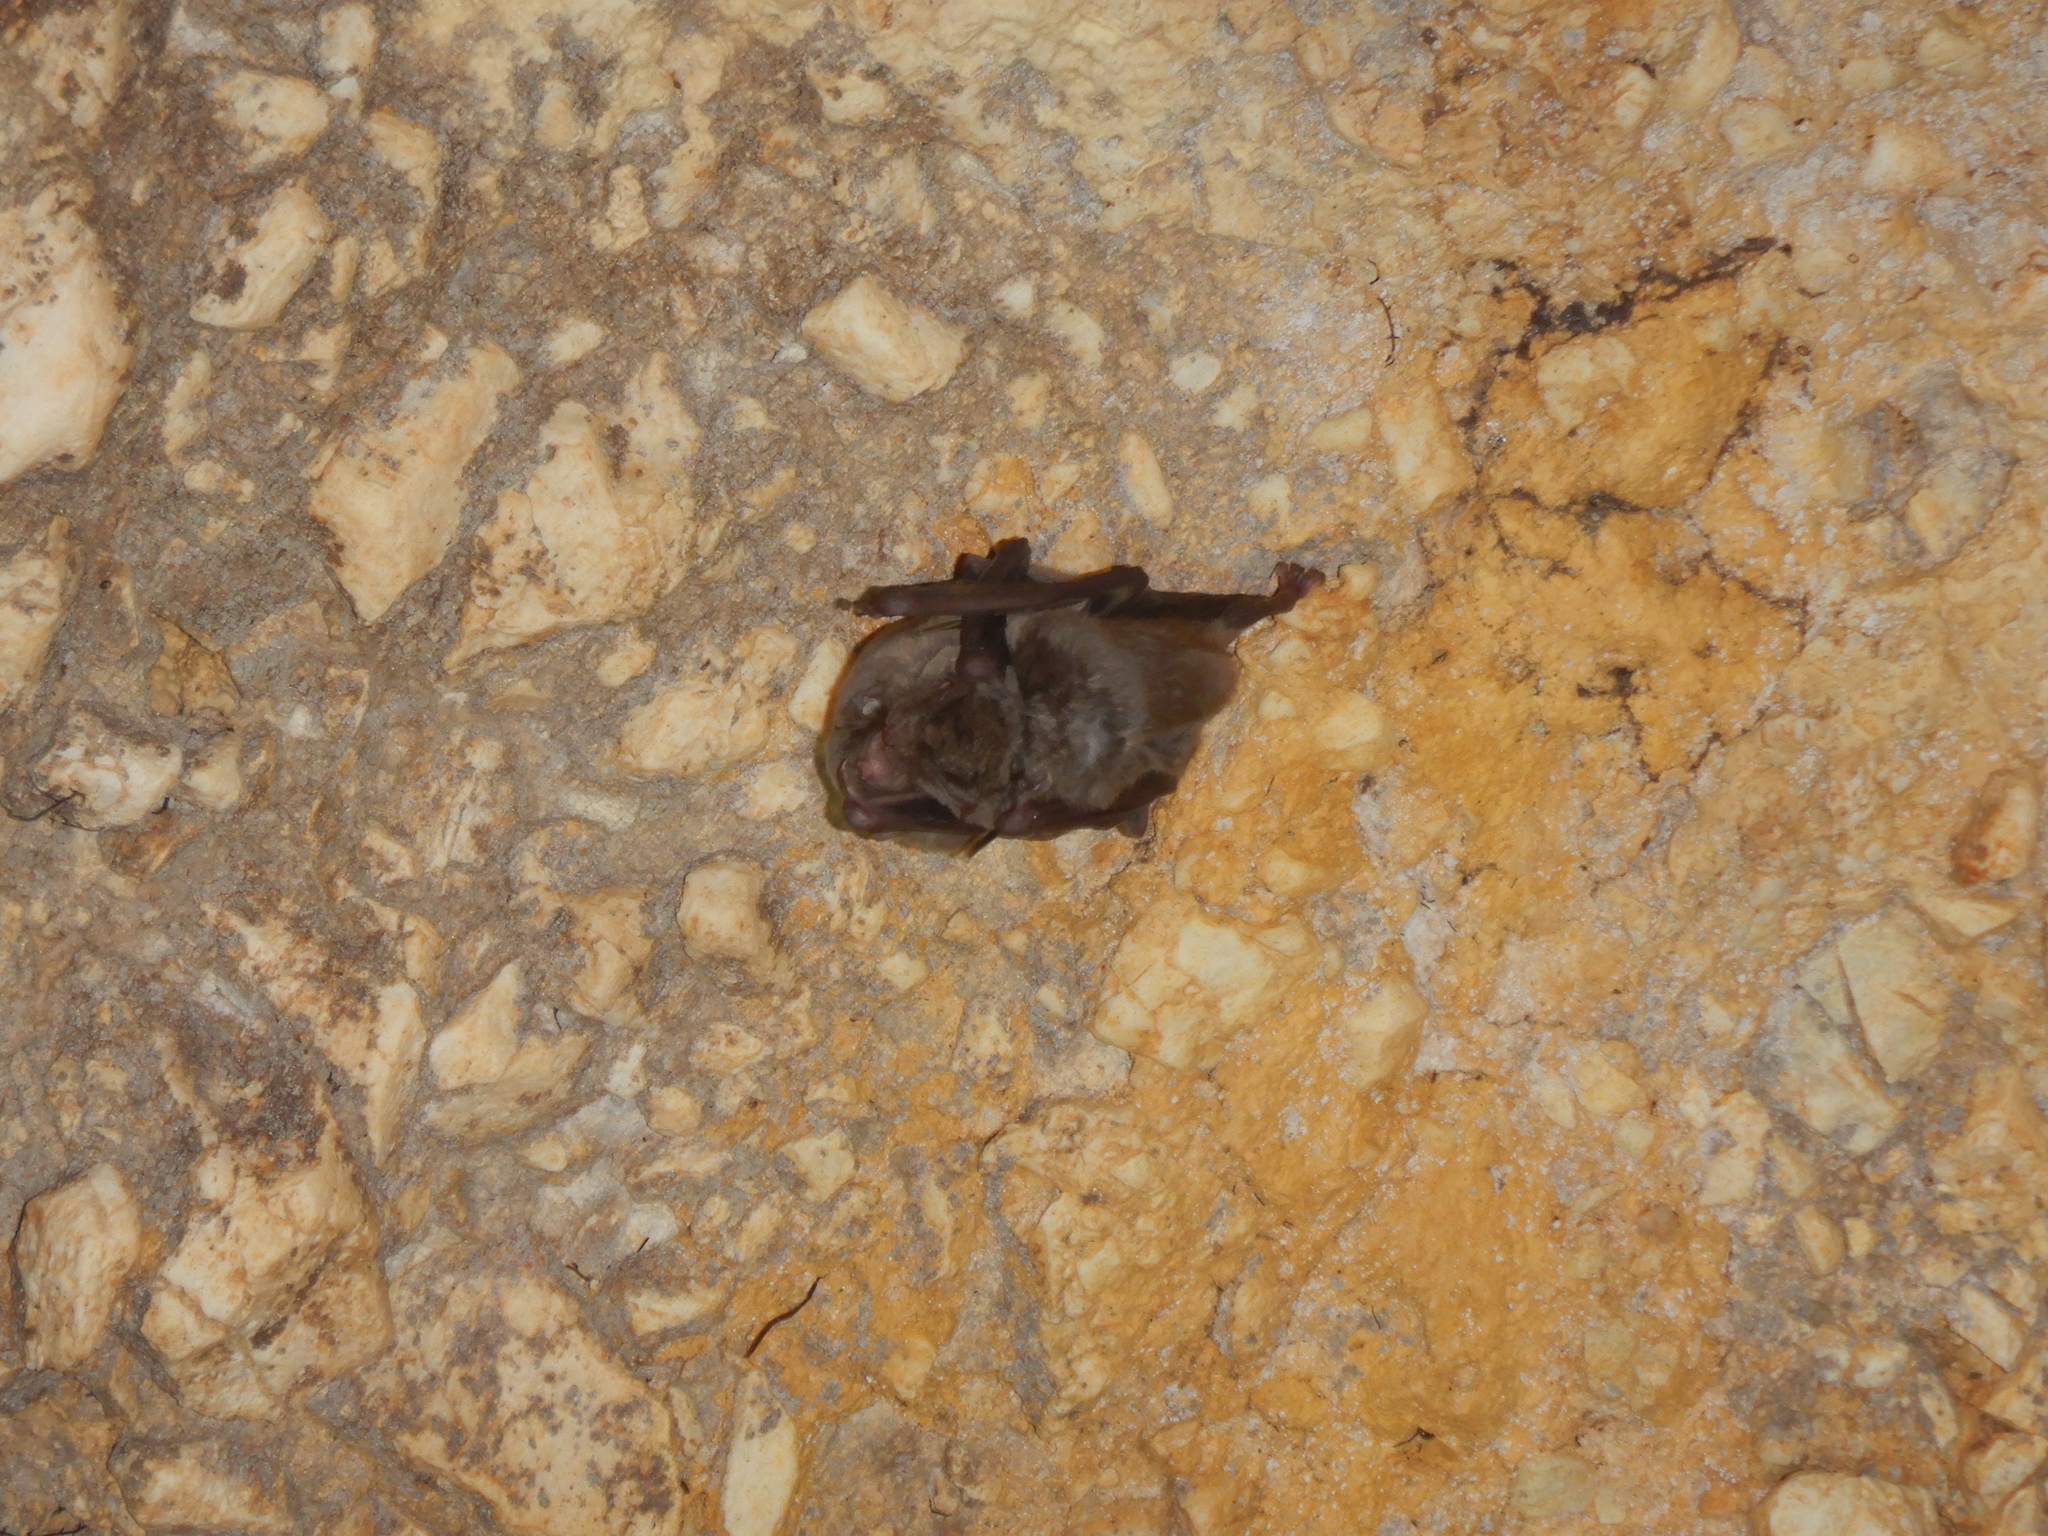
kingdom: Animalia
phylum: Chordata
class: Mammalia
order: Chiroptera
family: Miniopteridae
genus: Miniopterus
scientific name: Miniopterus schreibersii
